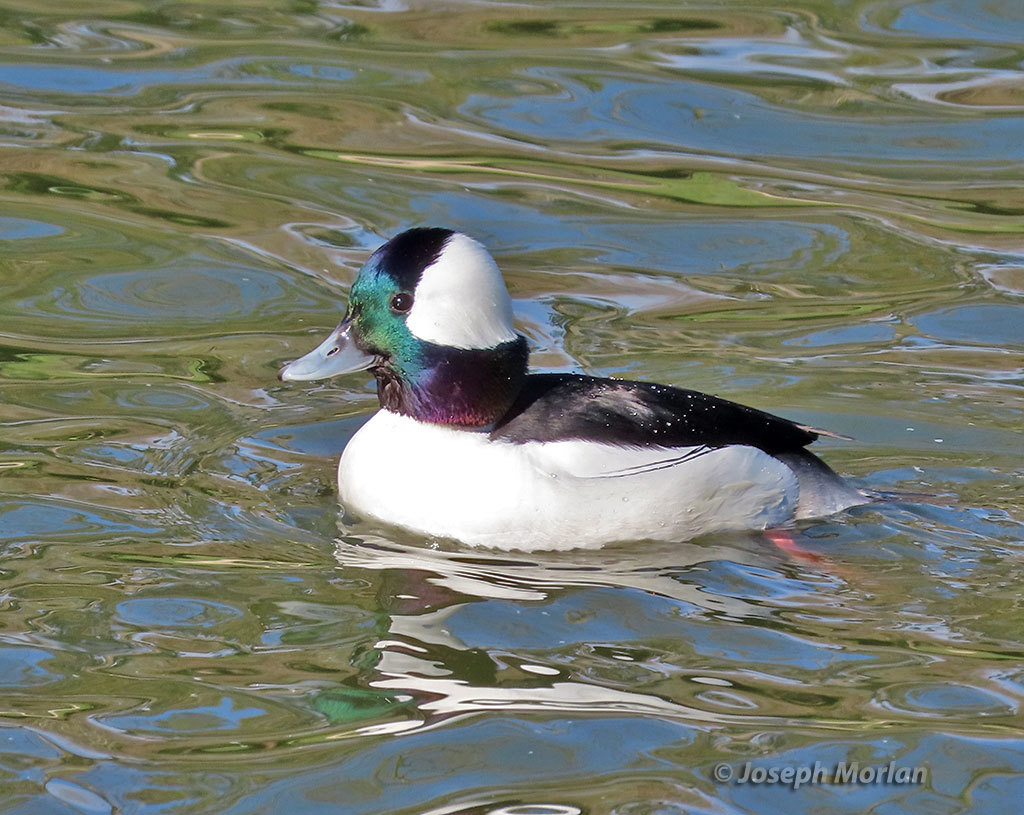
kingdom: Animalia
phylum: Chordata
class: Aves
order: Anseriformes
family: Anatidae
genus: Bucephala
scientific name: Bucephala albeola
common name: Bufflehead
